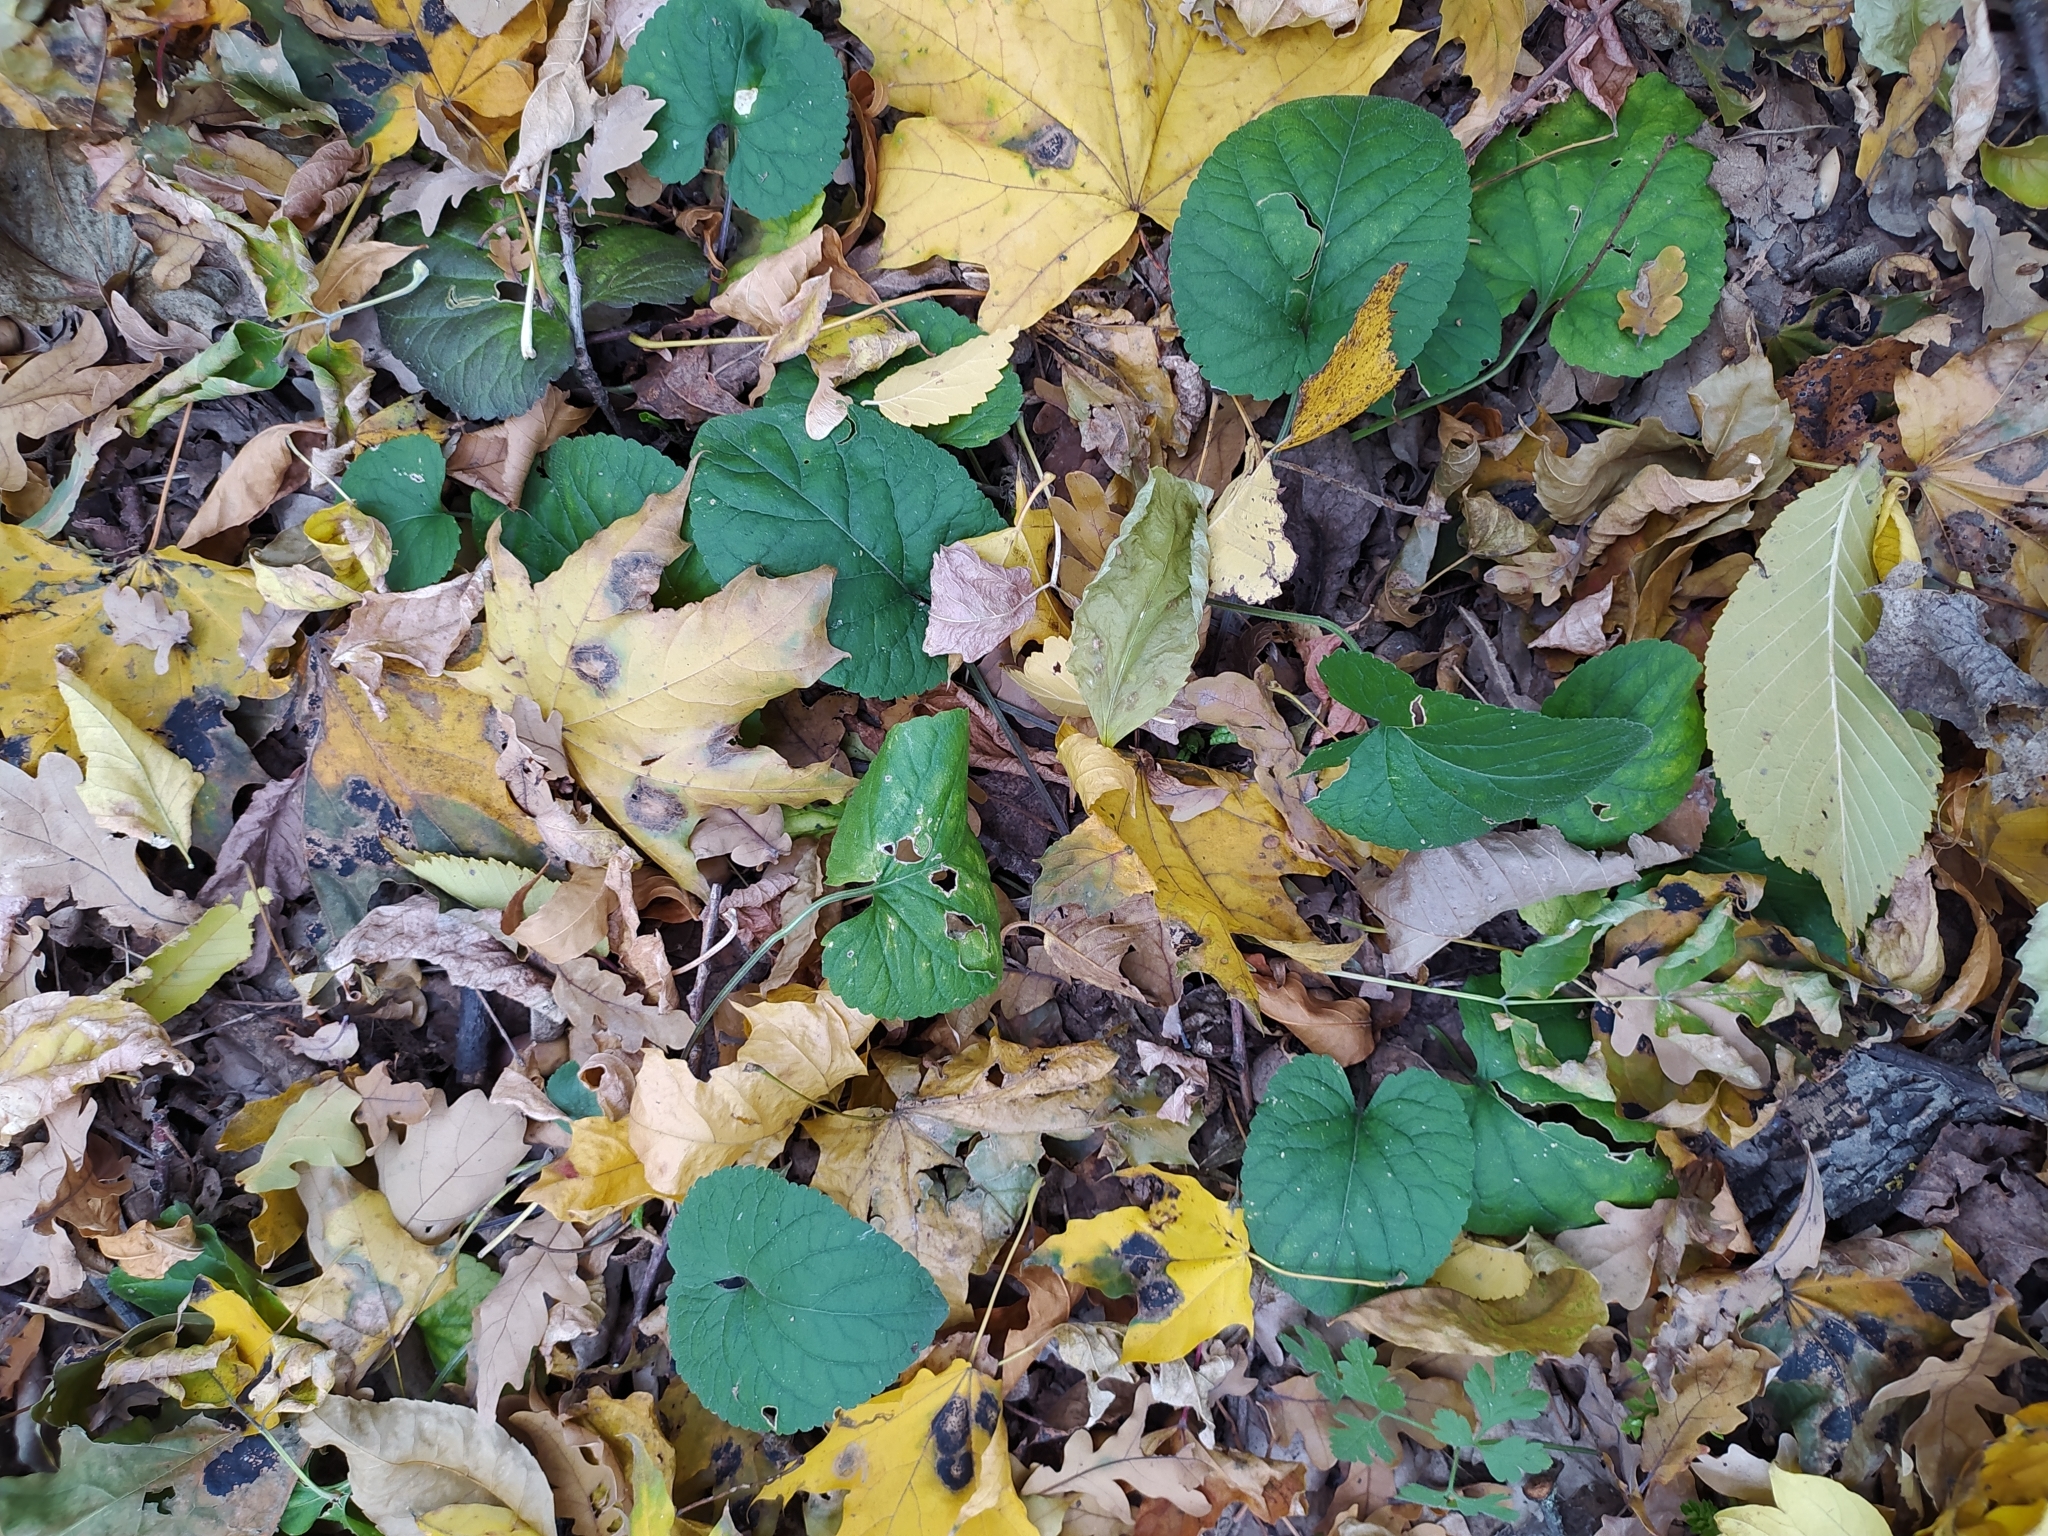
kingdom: Plantae
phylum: Tracheophyta
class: Magnoliopsida
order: Malpighiales
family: Violaceae
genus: Viola
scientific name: Viola odorata
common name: Sweet violet
